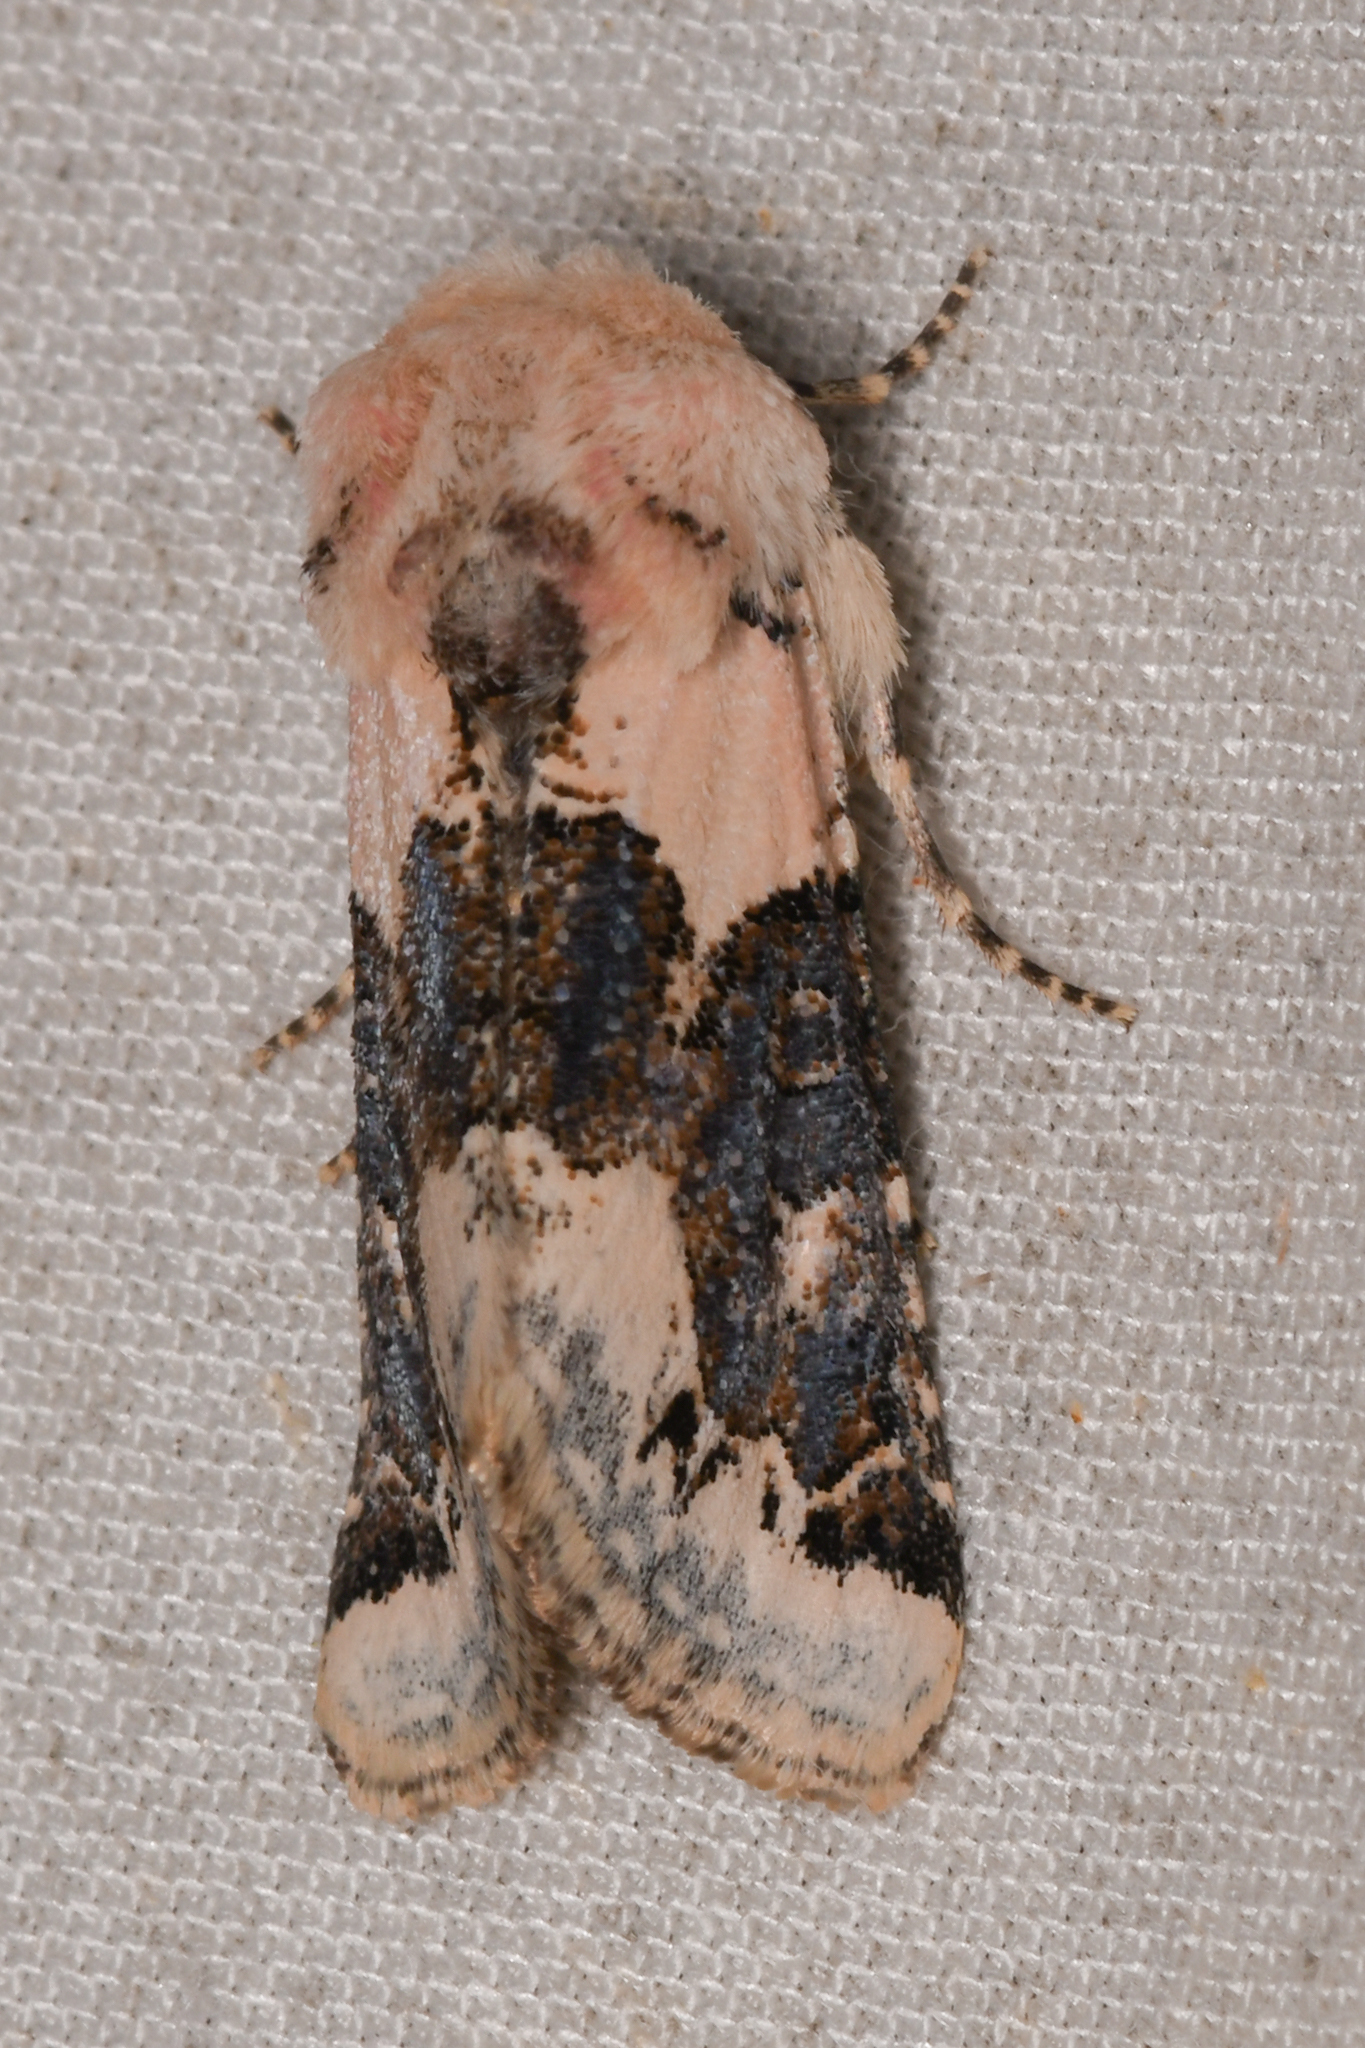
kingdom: Animalia
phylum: Arthropoda
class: Insecta
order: Lepidoptera
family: Noctuidae
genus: Triocnemis
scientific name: Triocnemis saporis
